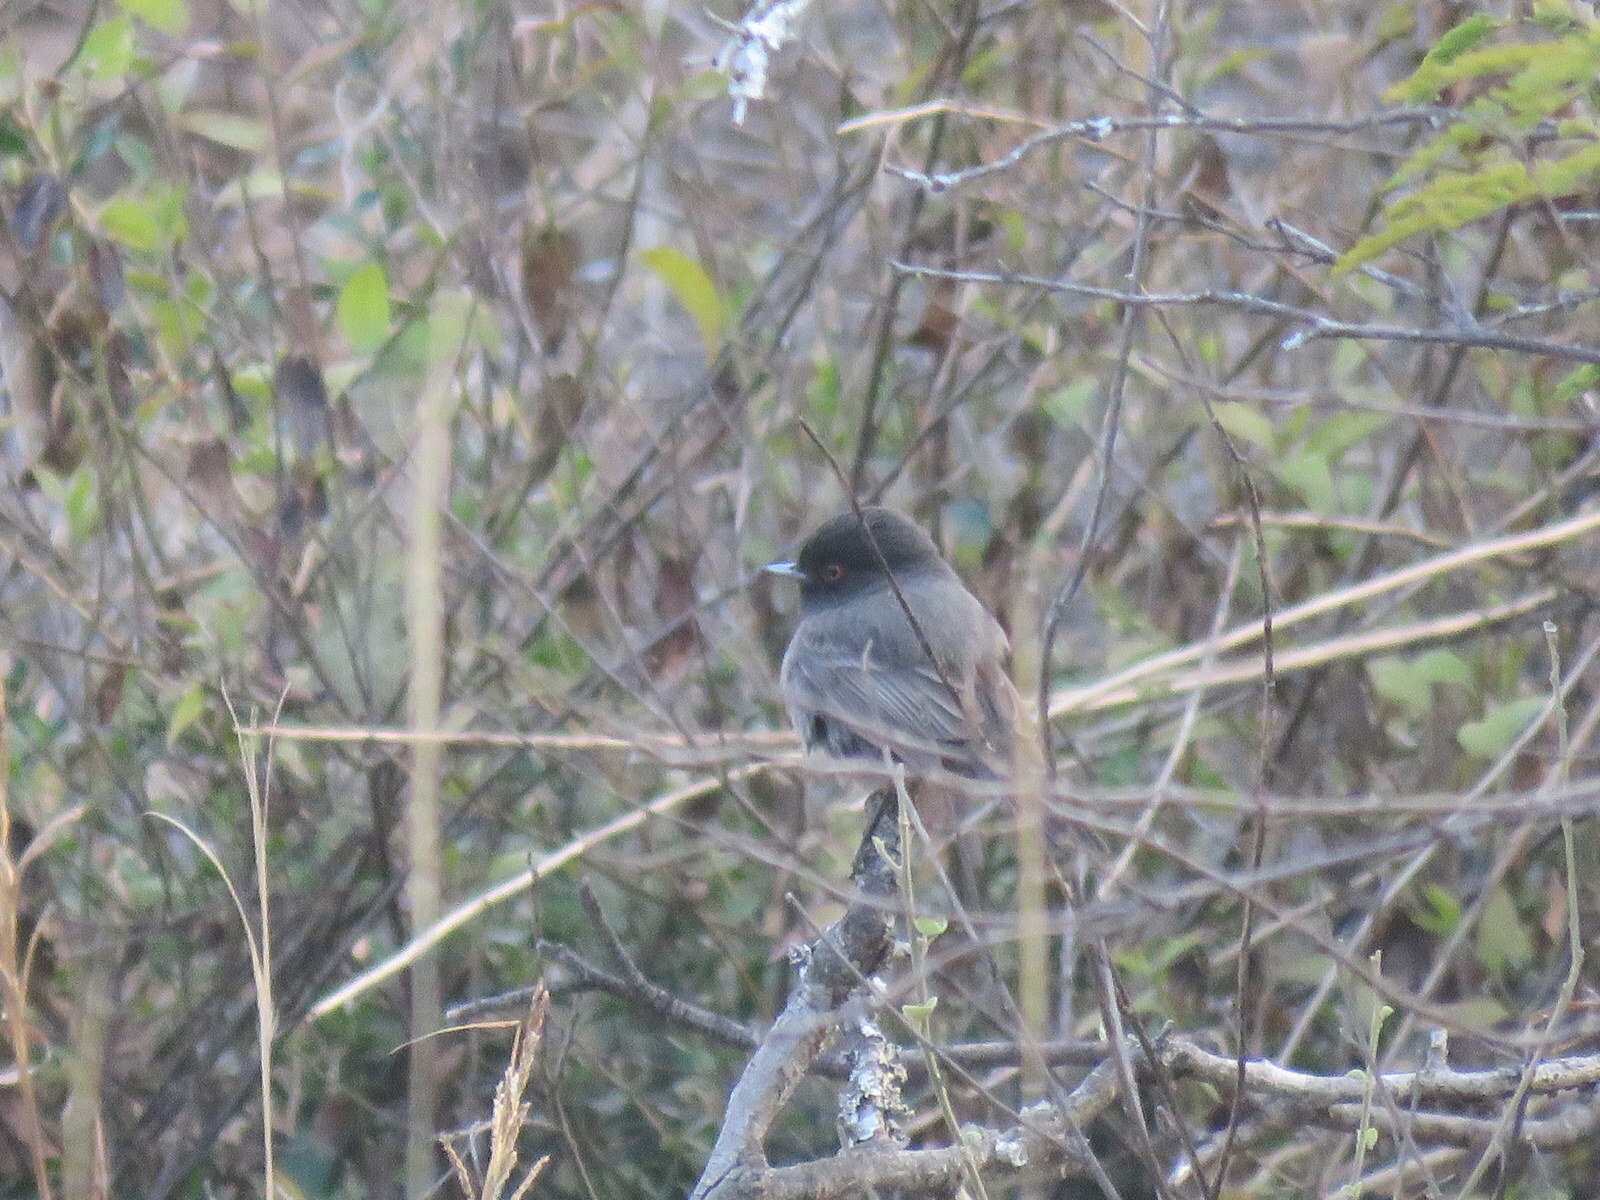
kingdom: Animalia
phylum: Chordata
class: Aves
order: Passeriformes
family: Tyrannidae
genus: Knipolegus
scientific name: Knipolegus striaticeps
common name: Cinereous tyrant
